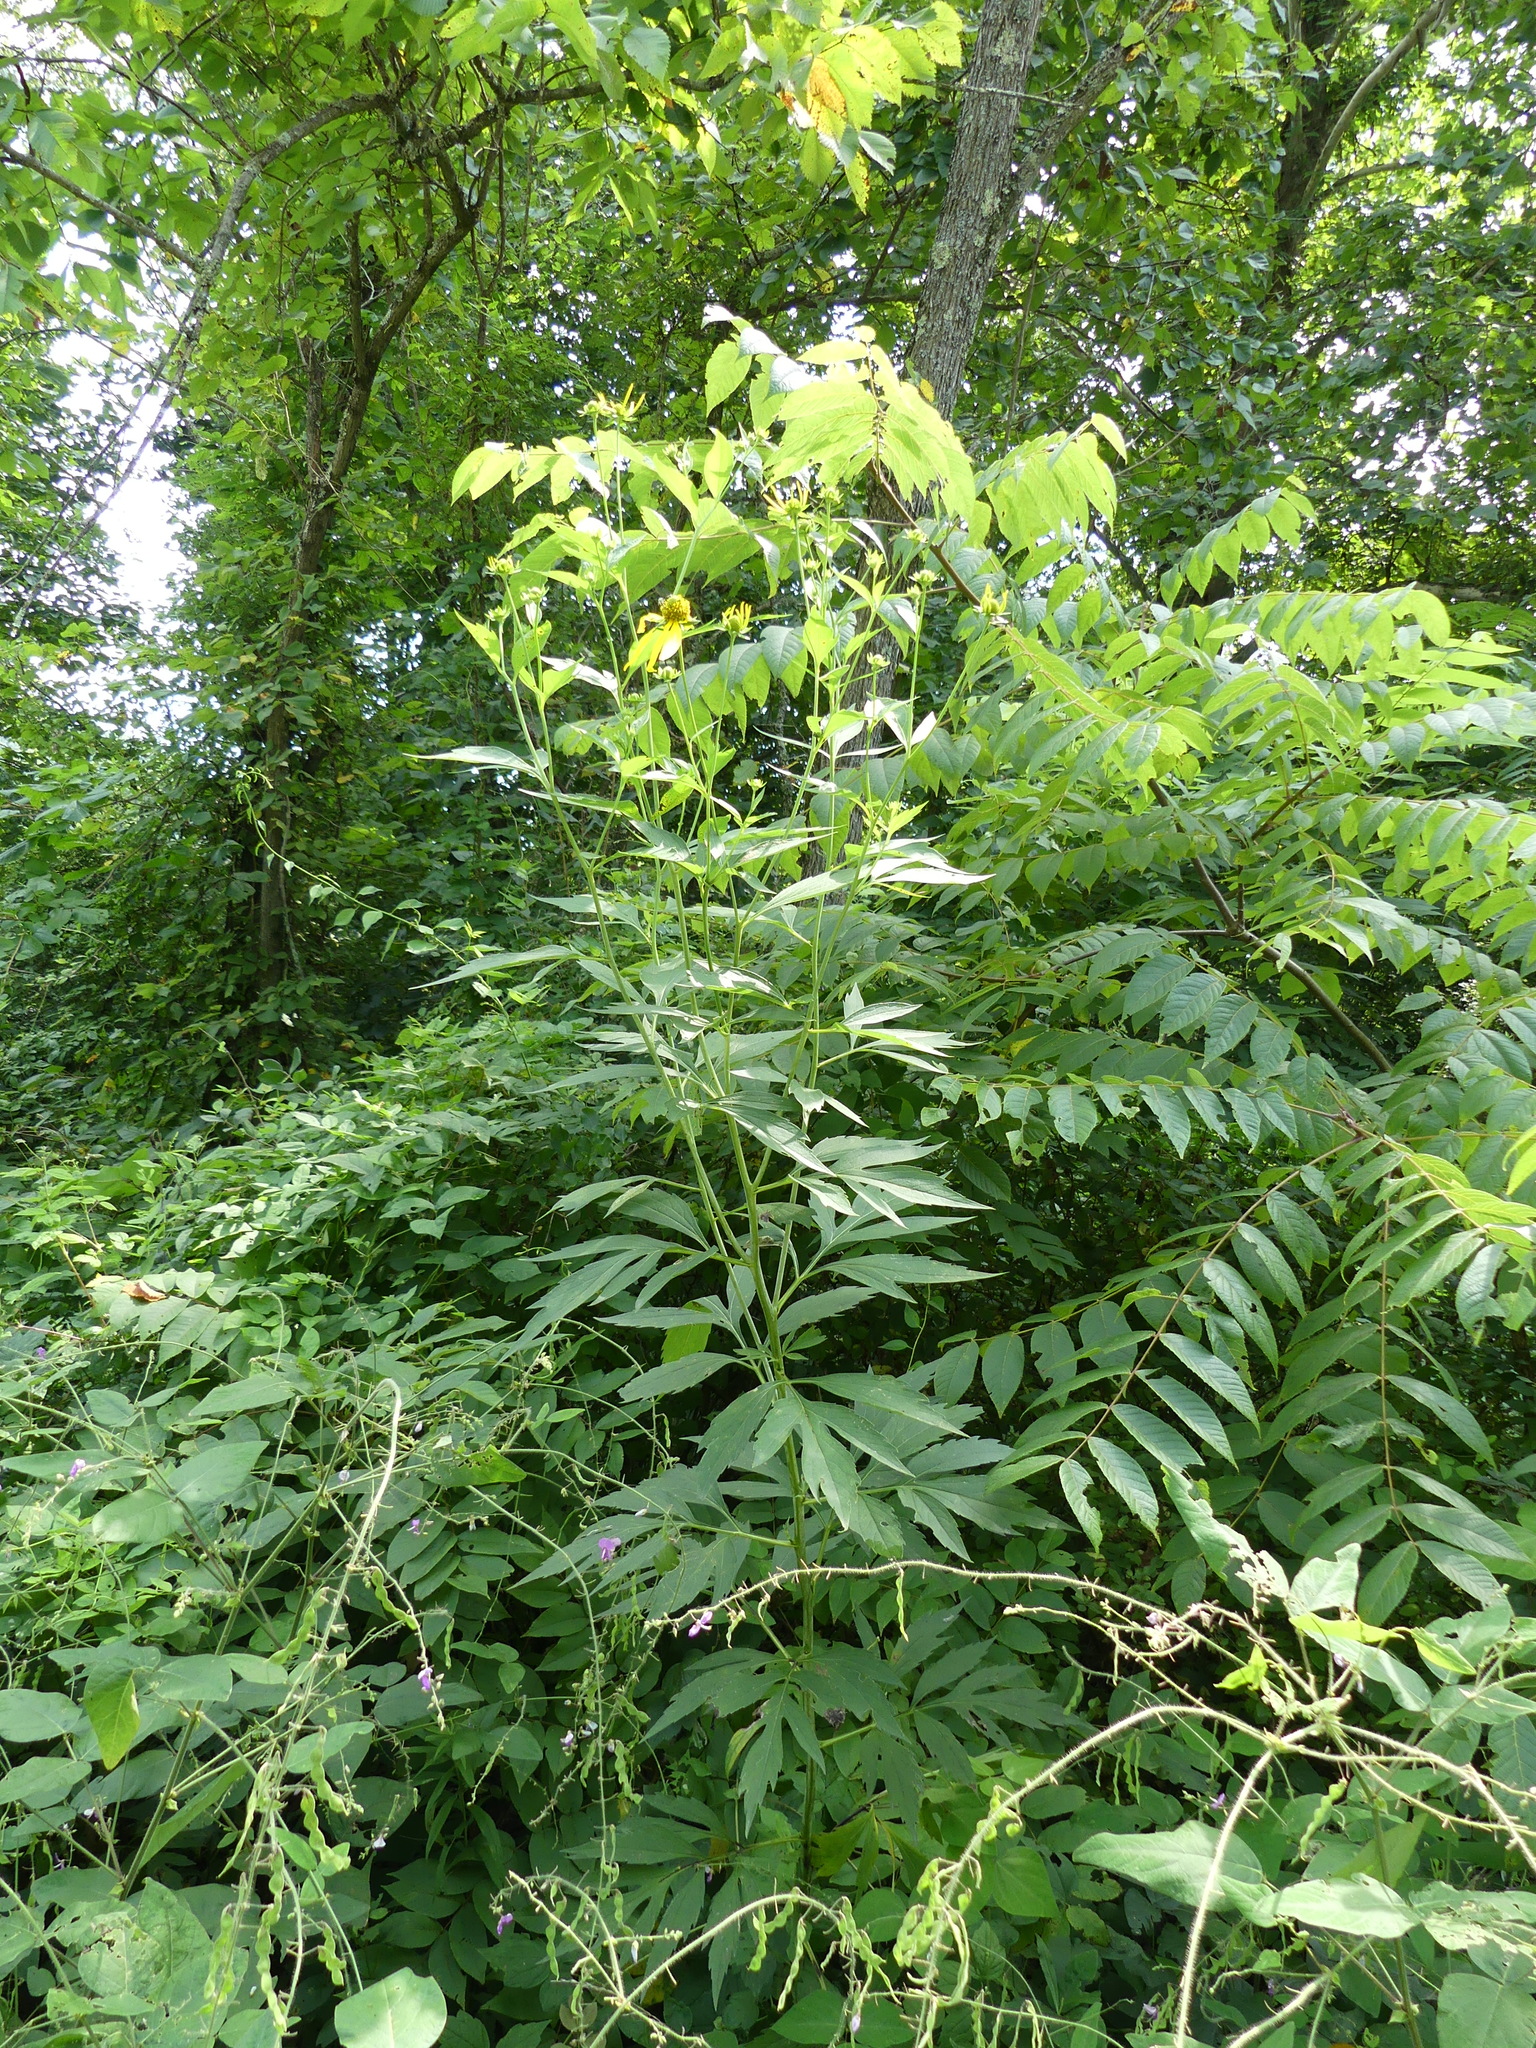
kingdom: Plantae
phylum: Tracheophyta
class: Magnoliopsida
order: Asterales
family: Asteraceae
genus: Rudbeckia
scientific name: Rudbeckia laciniata
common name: Coneflower
